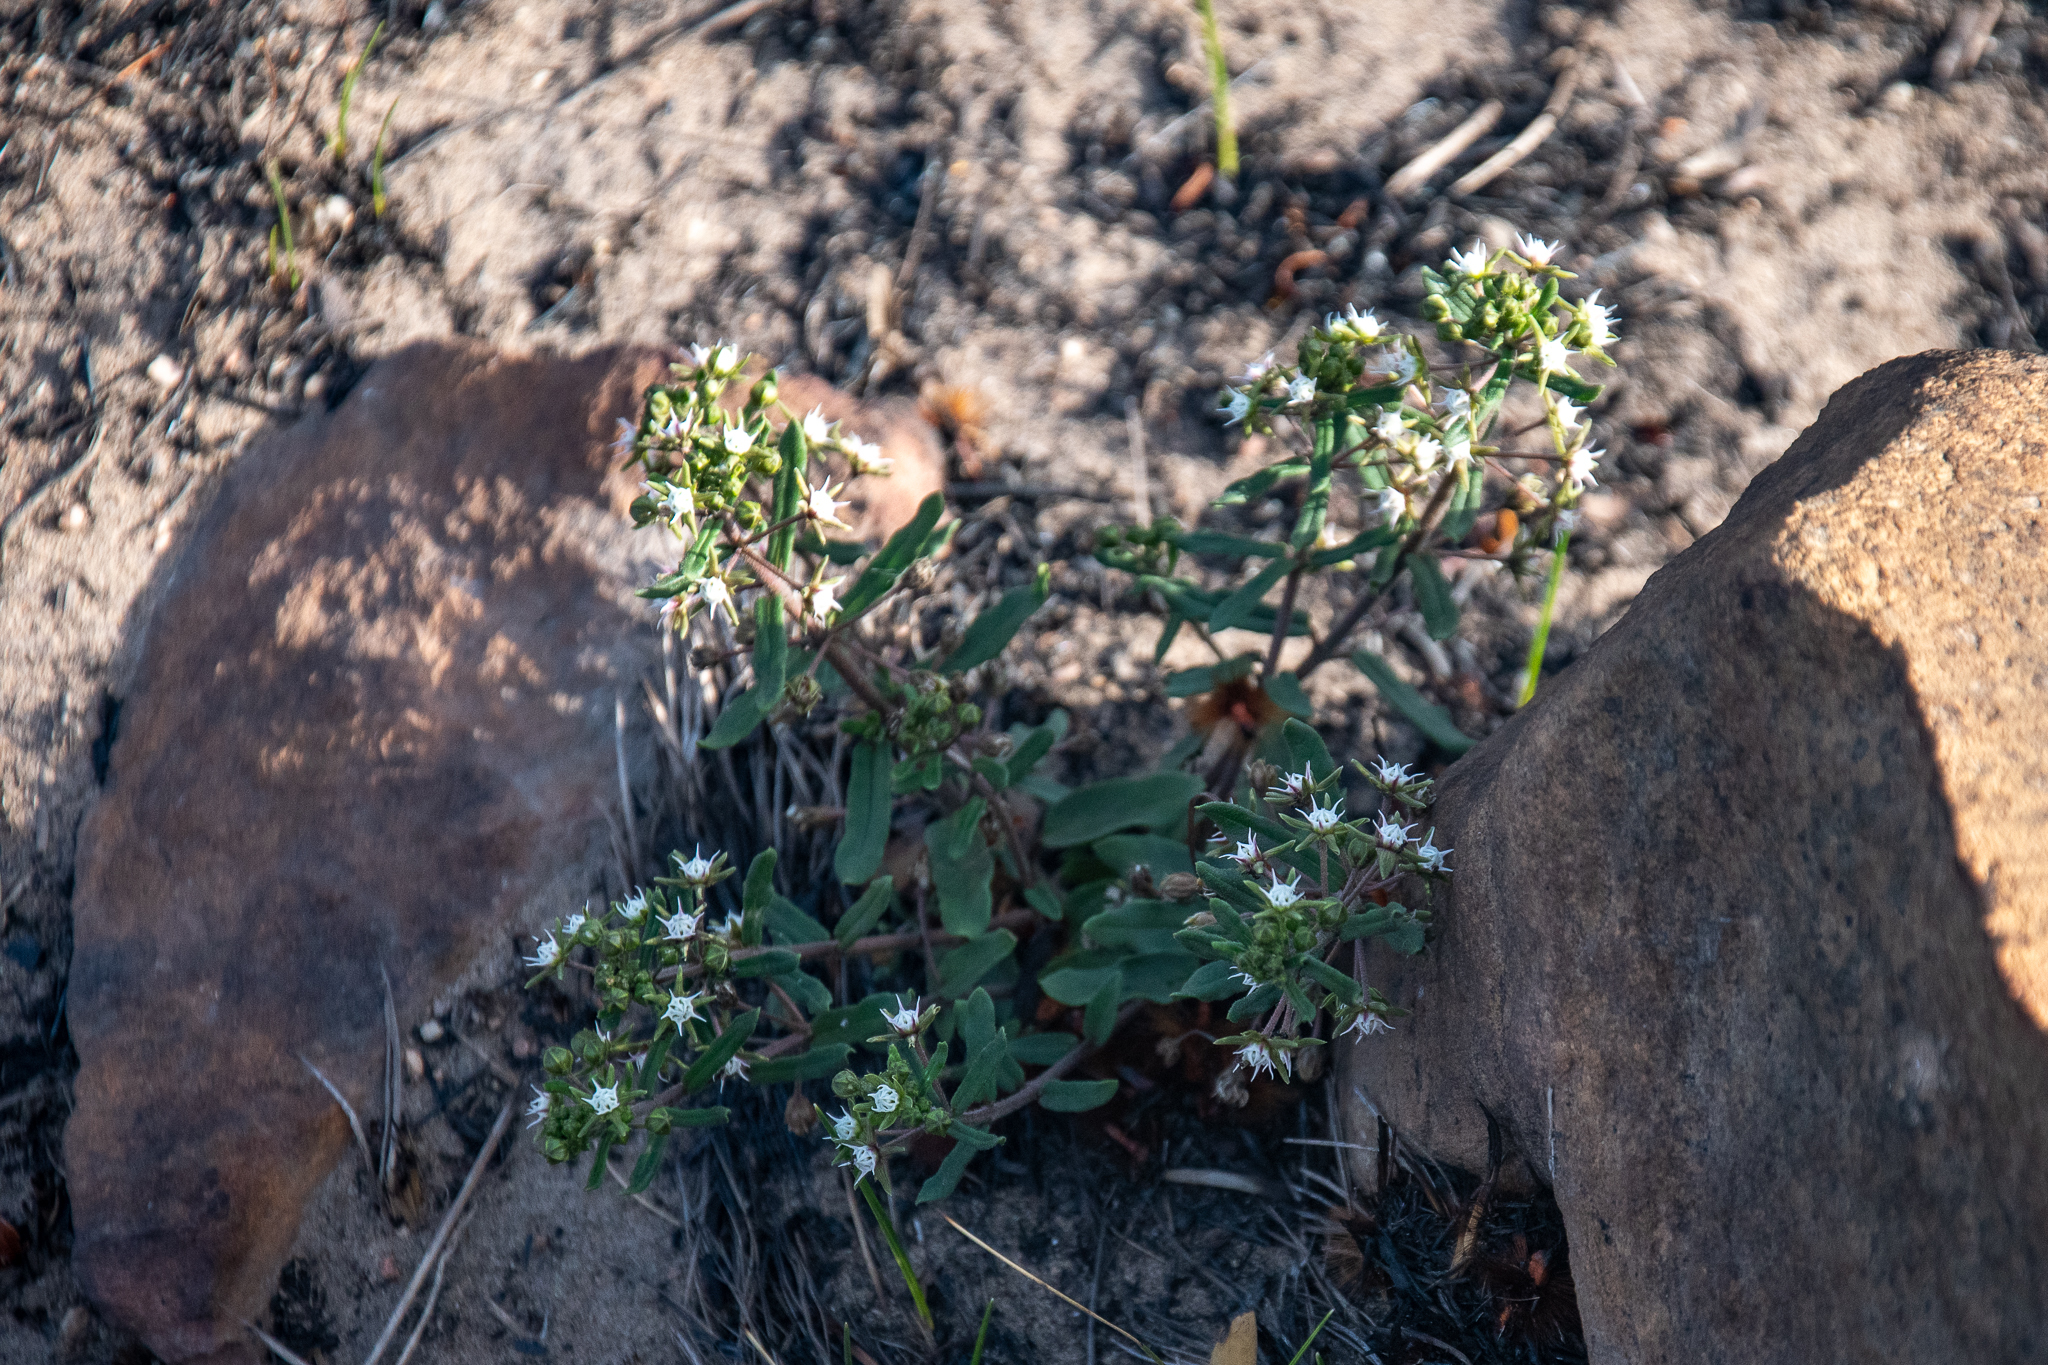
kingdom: Plantae
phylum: Tracheophyta
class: Magnoliopsida
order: Gentianales
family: Apocynaceae
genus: Aspidoglossum
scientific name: Aspidoglossum heterophyllum
